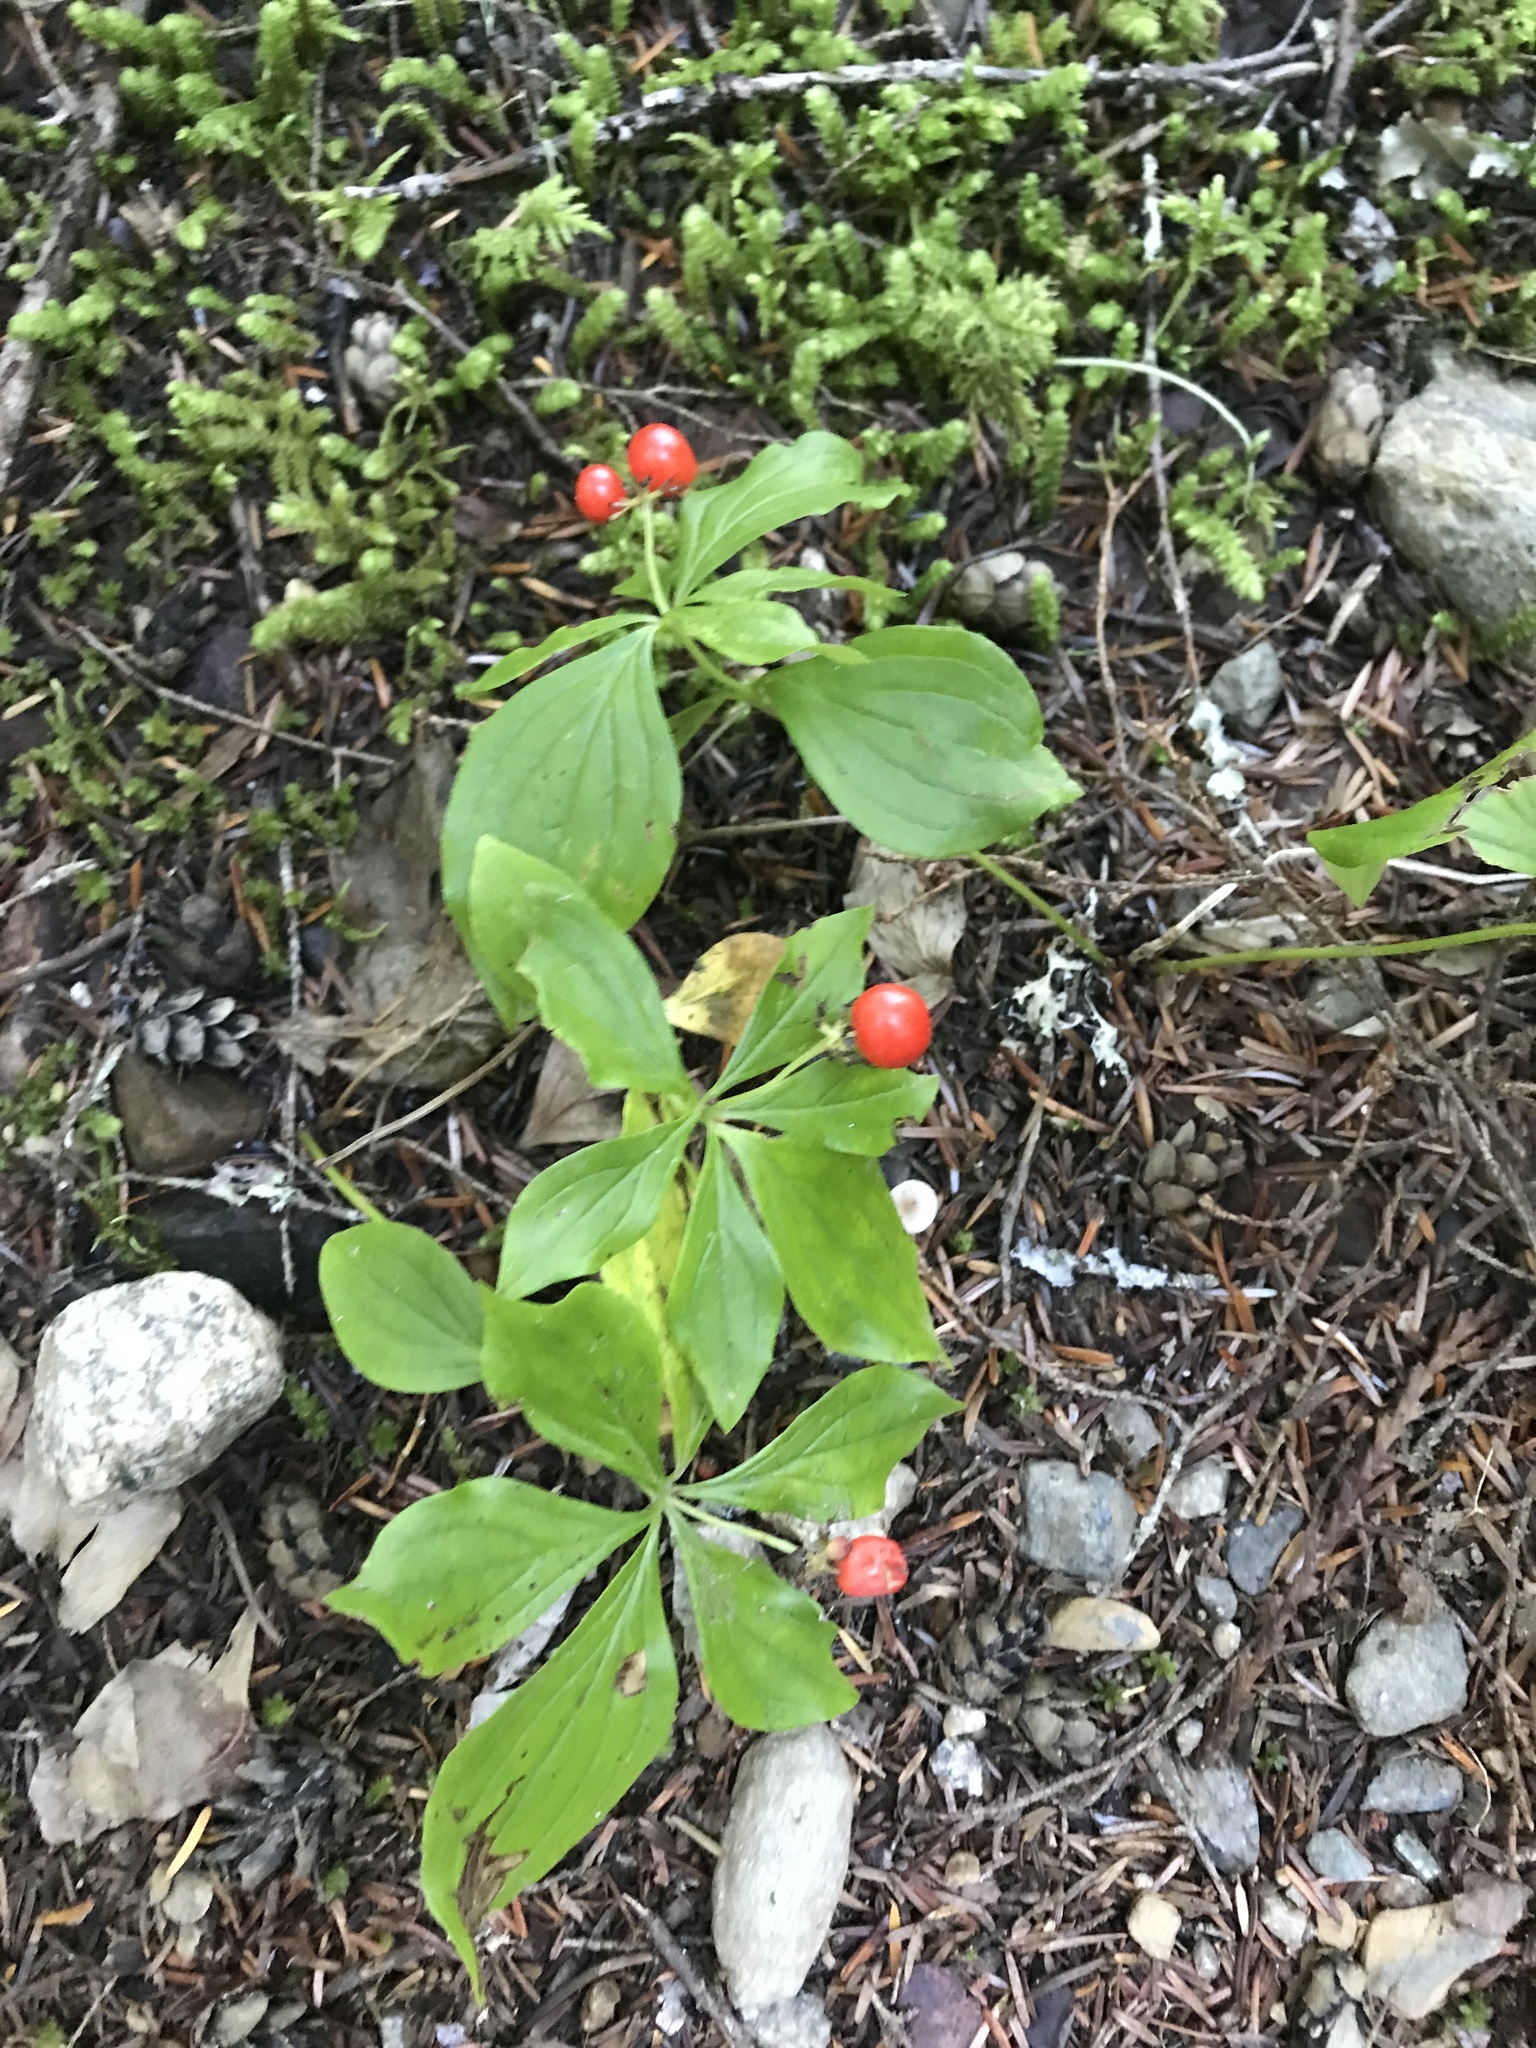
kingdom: Plantae
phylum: Tracheophyta
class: Magnoliopsida
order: Cornales
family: Cornaceae
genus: Cornus
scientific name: Cornus unalaschkensis
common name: Alaska bunchberry
